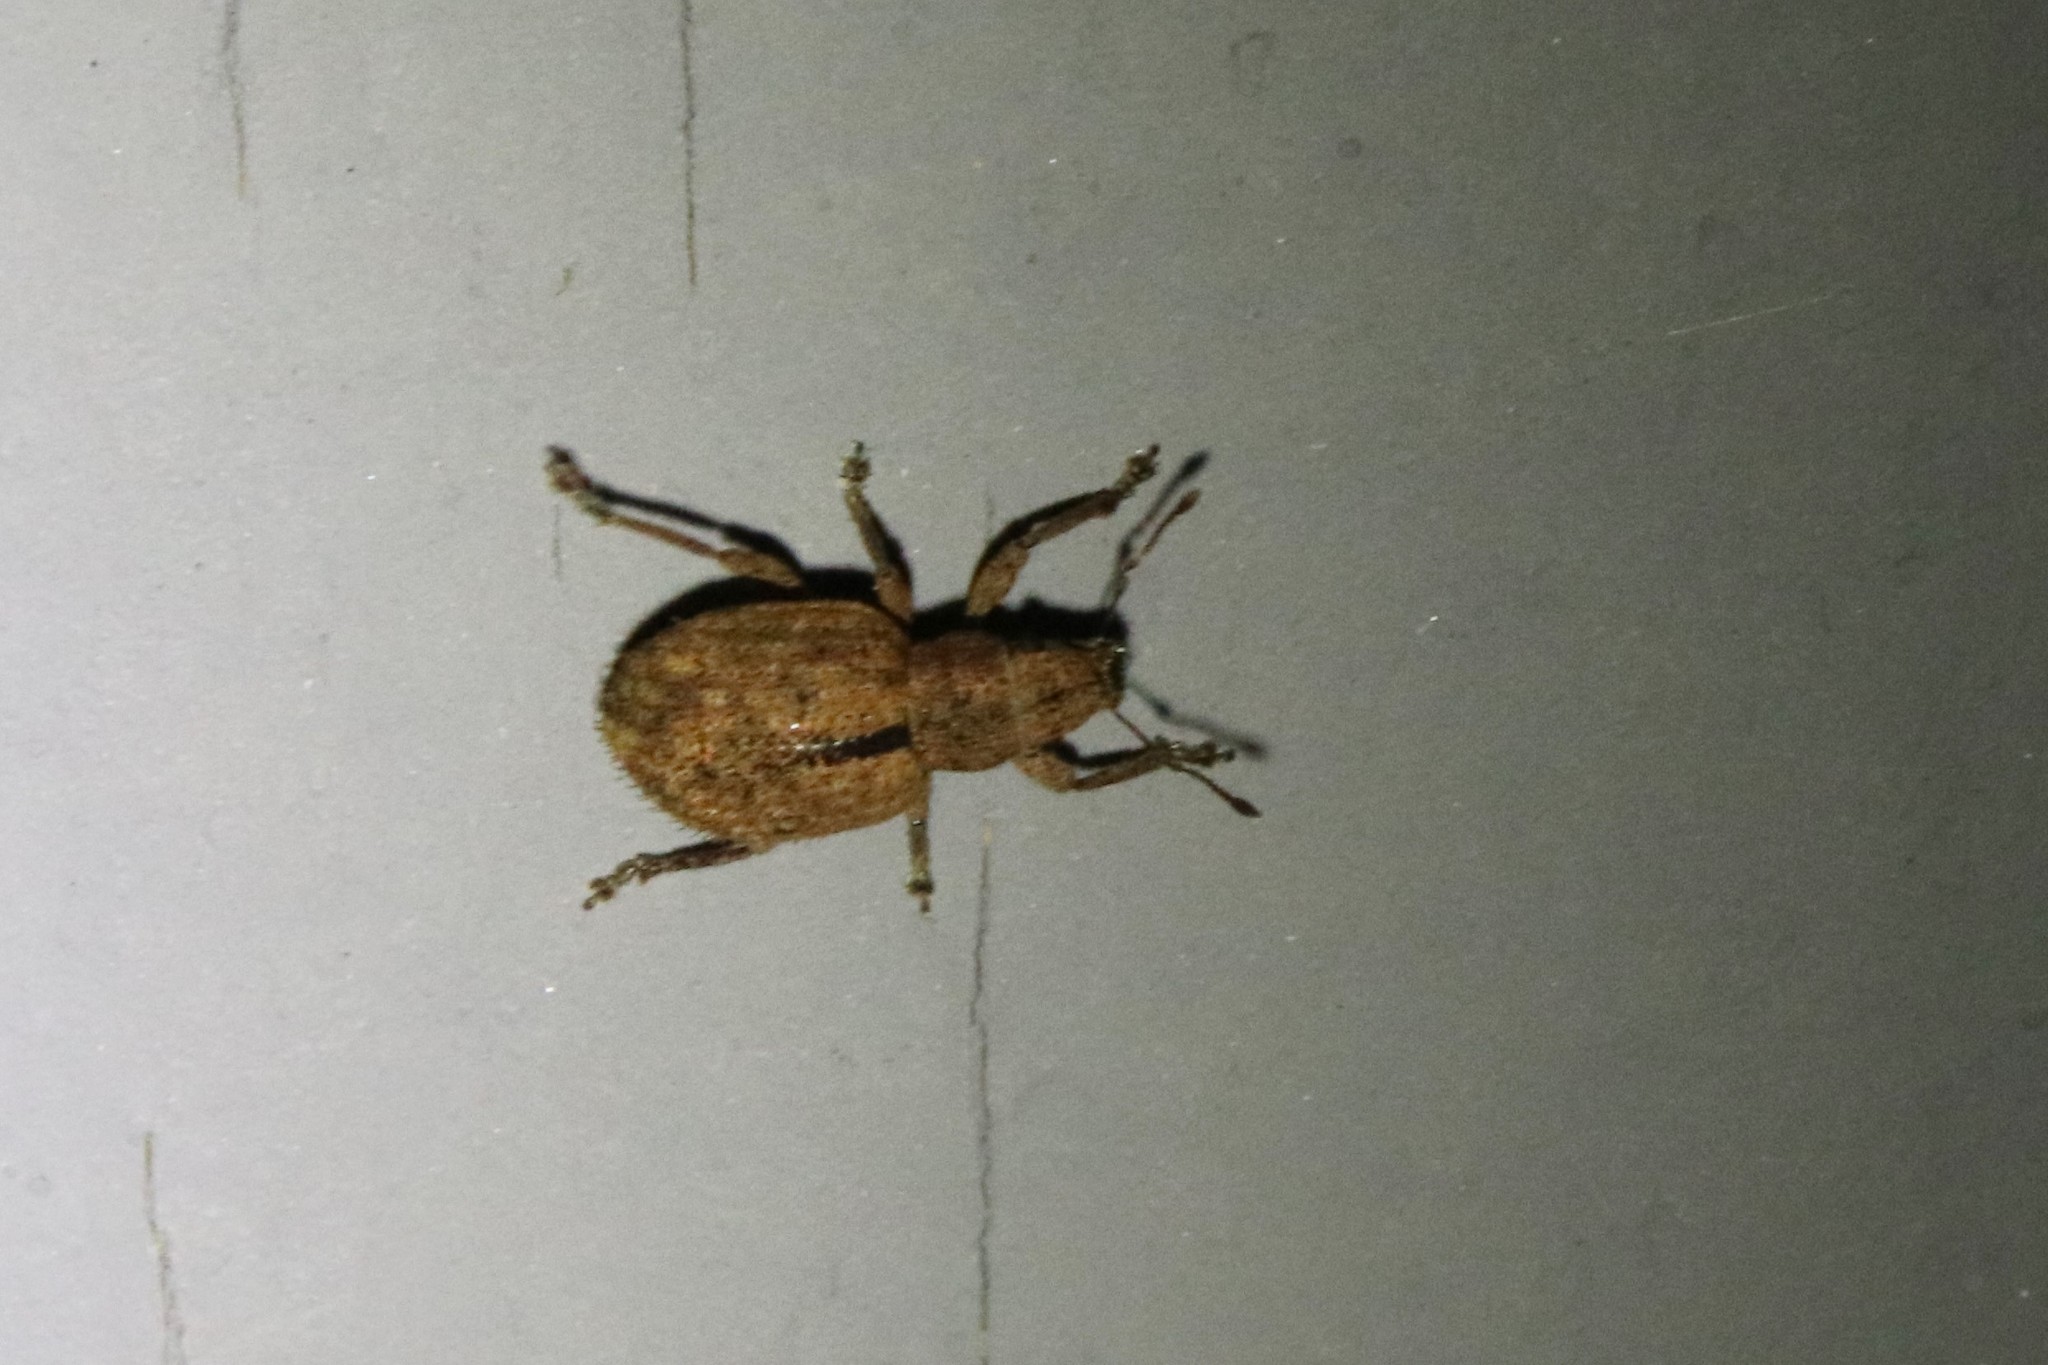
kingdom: Animalia
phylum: Arthropoda
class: Insecta
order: Coleoptera
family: Curculionidae
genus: Strophosoma
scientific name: Strophosoma melanogrammum
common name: Weevil
